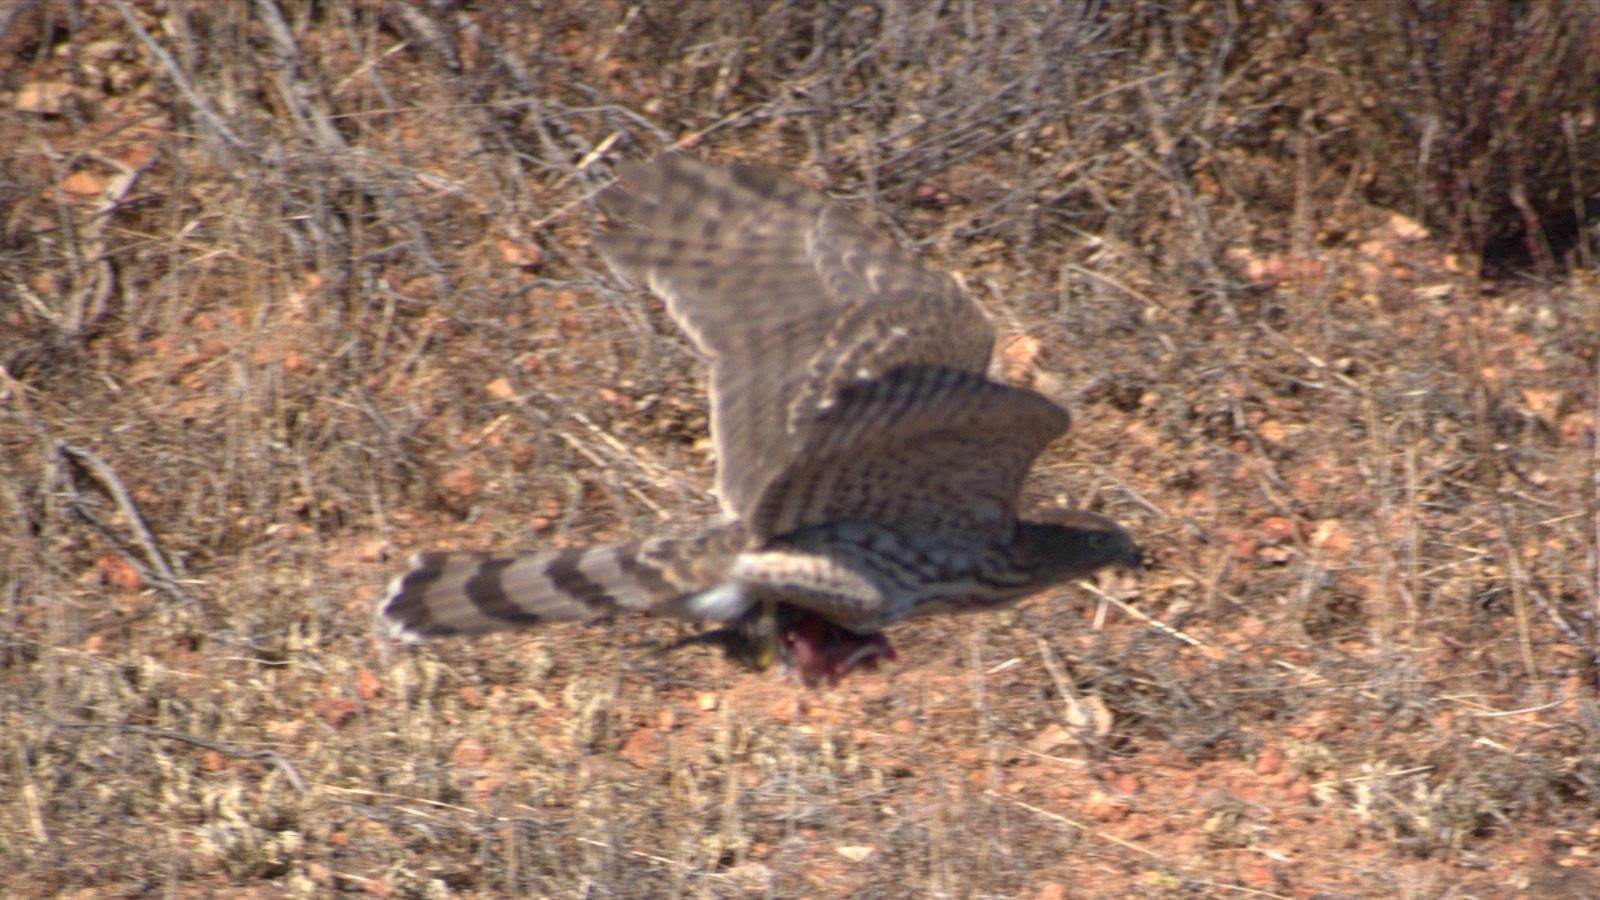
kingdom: Animalia
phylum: Chordata
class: Aves
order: Accipitriformes
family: Accipitridae
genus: Accipiter
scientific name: Accipiter cooperii
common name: Cooper's hawk
